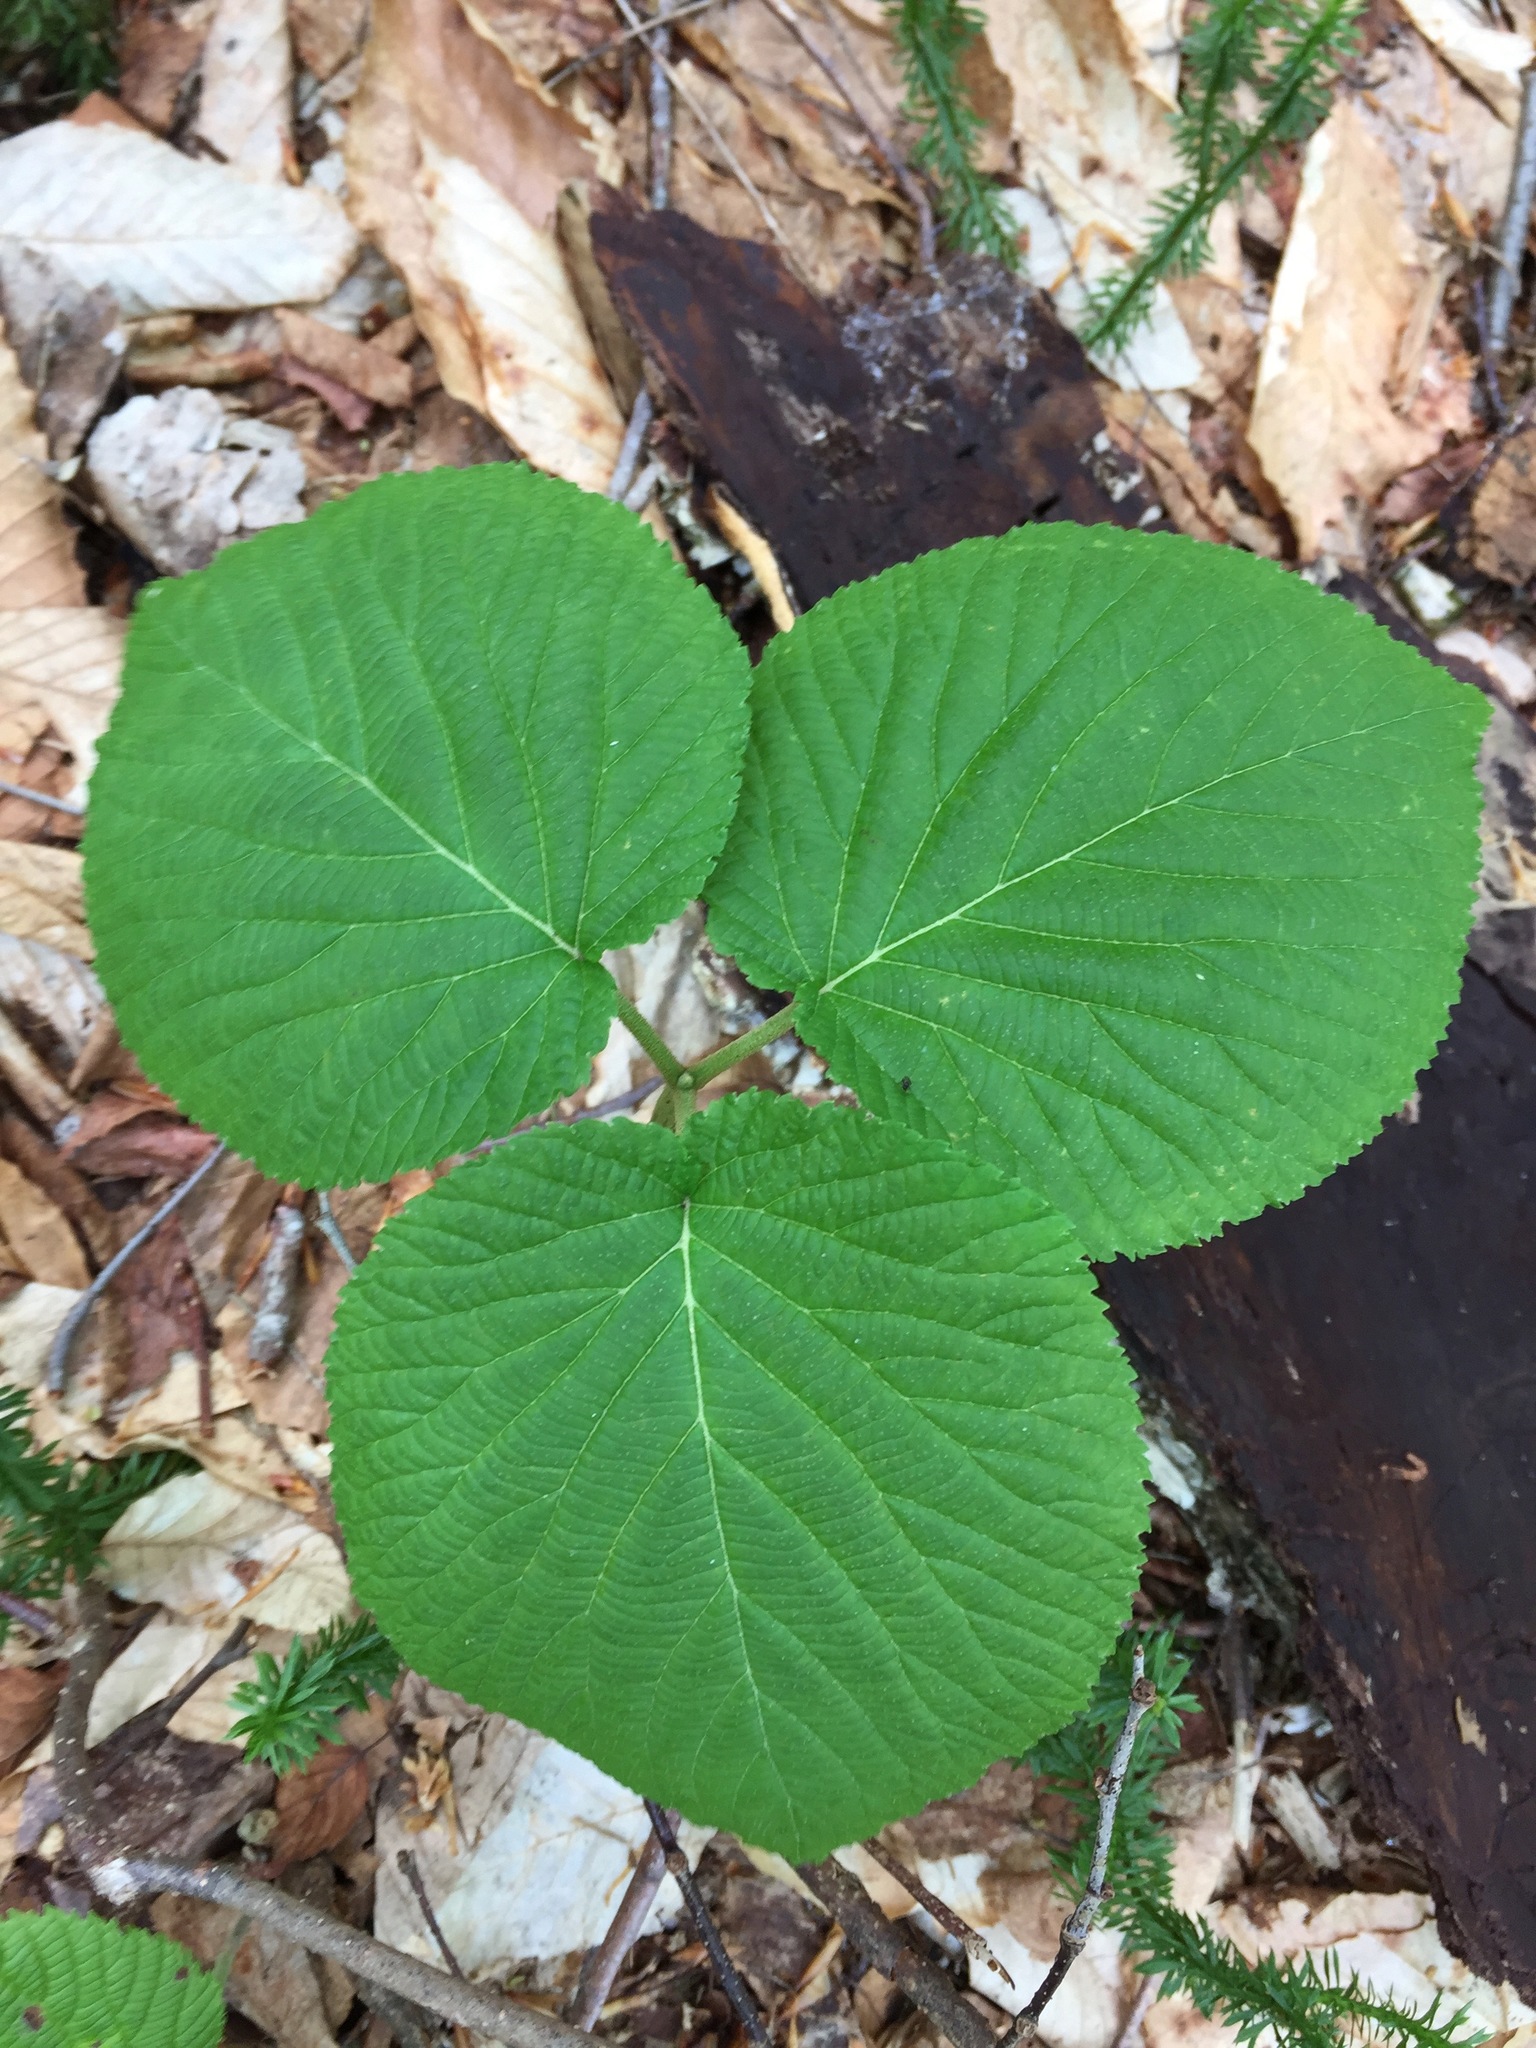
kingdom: Plantae
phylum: Tracheophyta
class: Magnoliopsida
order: Dipsacales
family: Viburnaceae
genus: Viburnum
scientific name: Viburnum lantanoides
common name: Hobblebush
